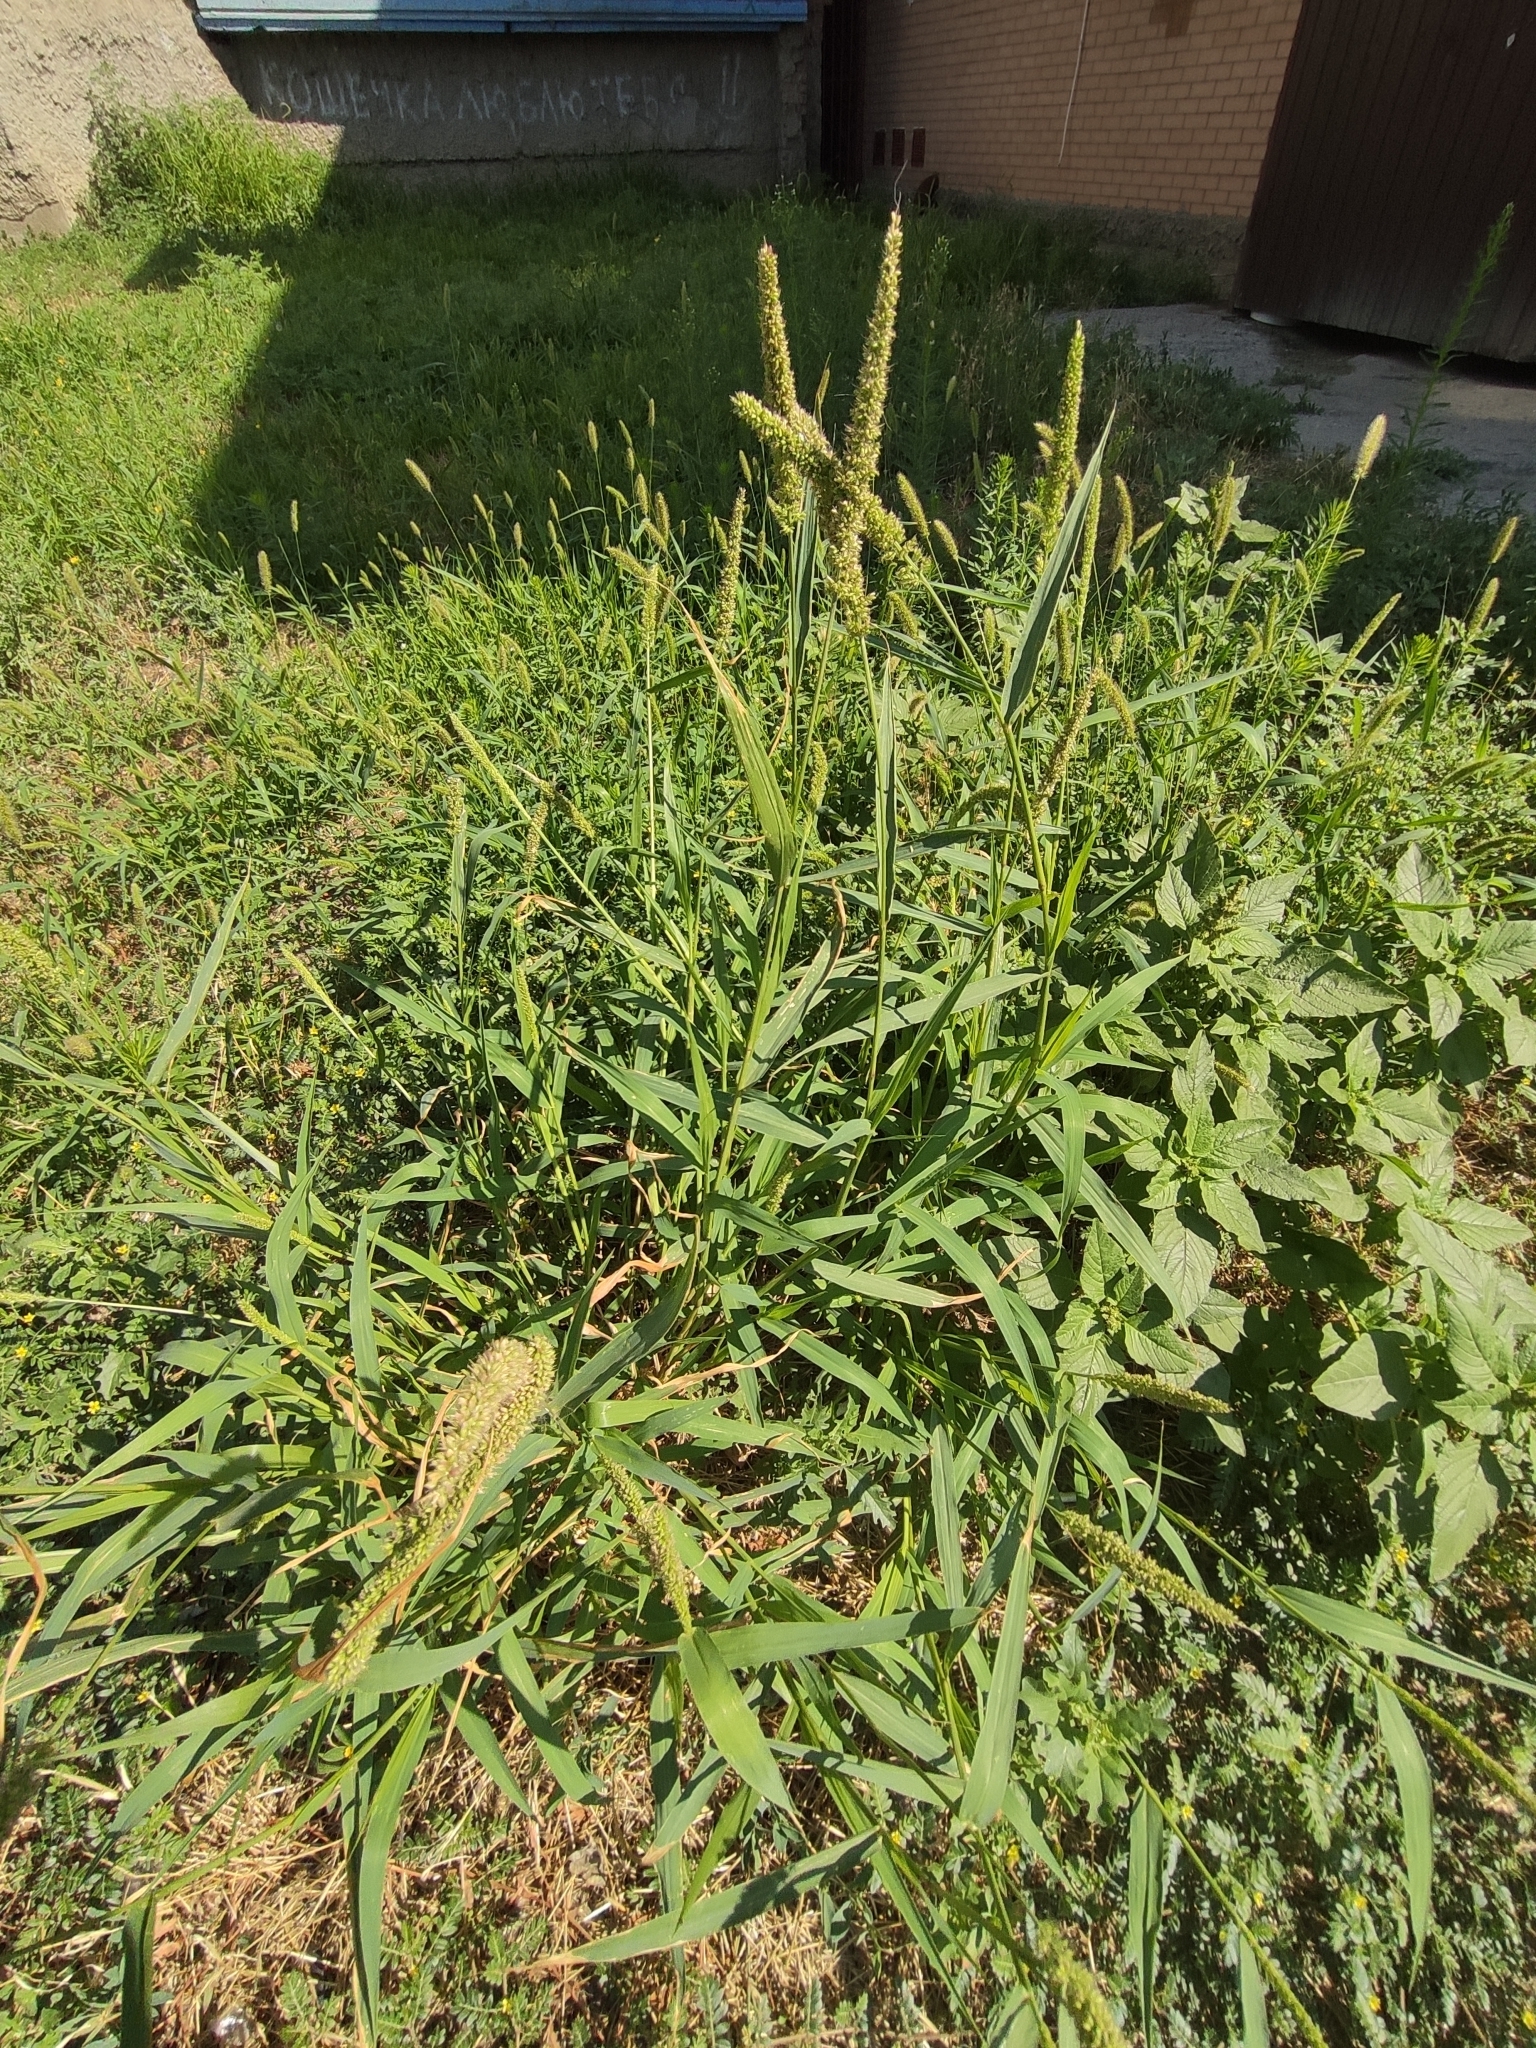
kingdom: Plantae
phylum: Tracheophyta
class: Liliopsida
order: Poales
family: Poaceae
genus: Setaria
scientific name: Setaria verticillata
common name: Hooked bristlegrass
